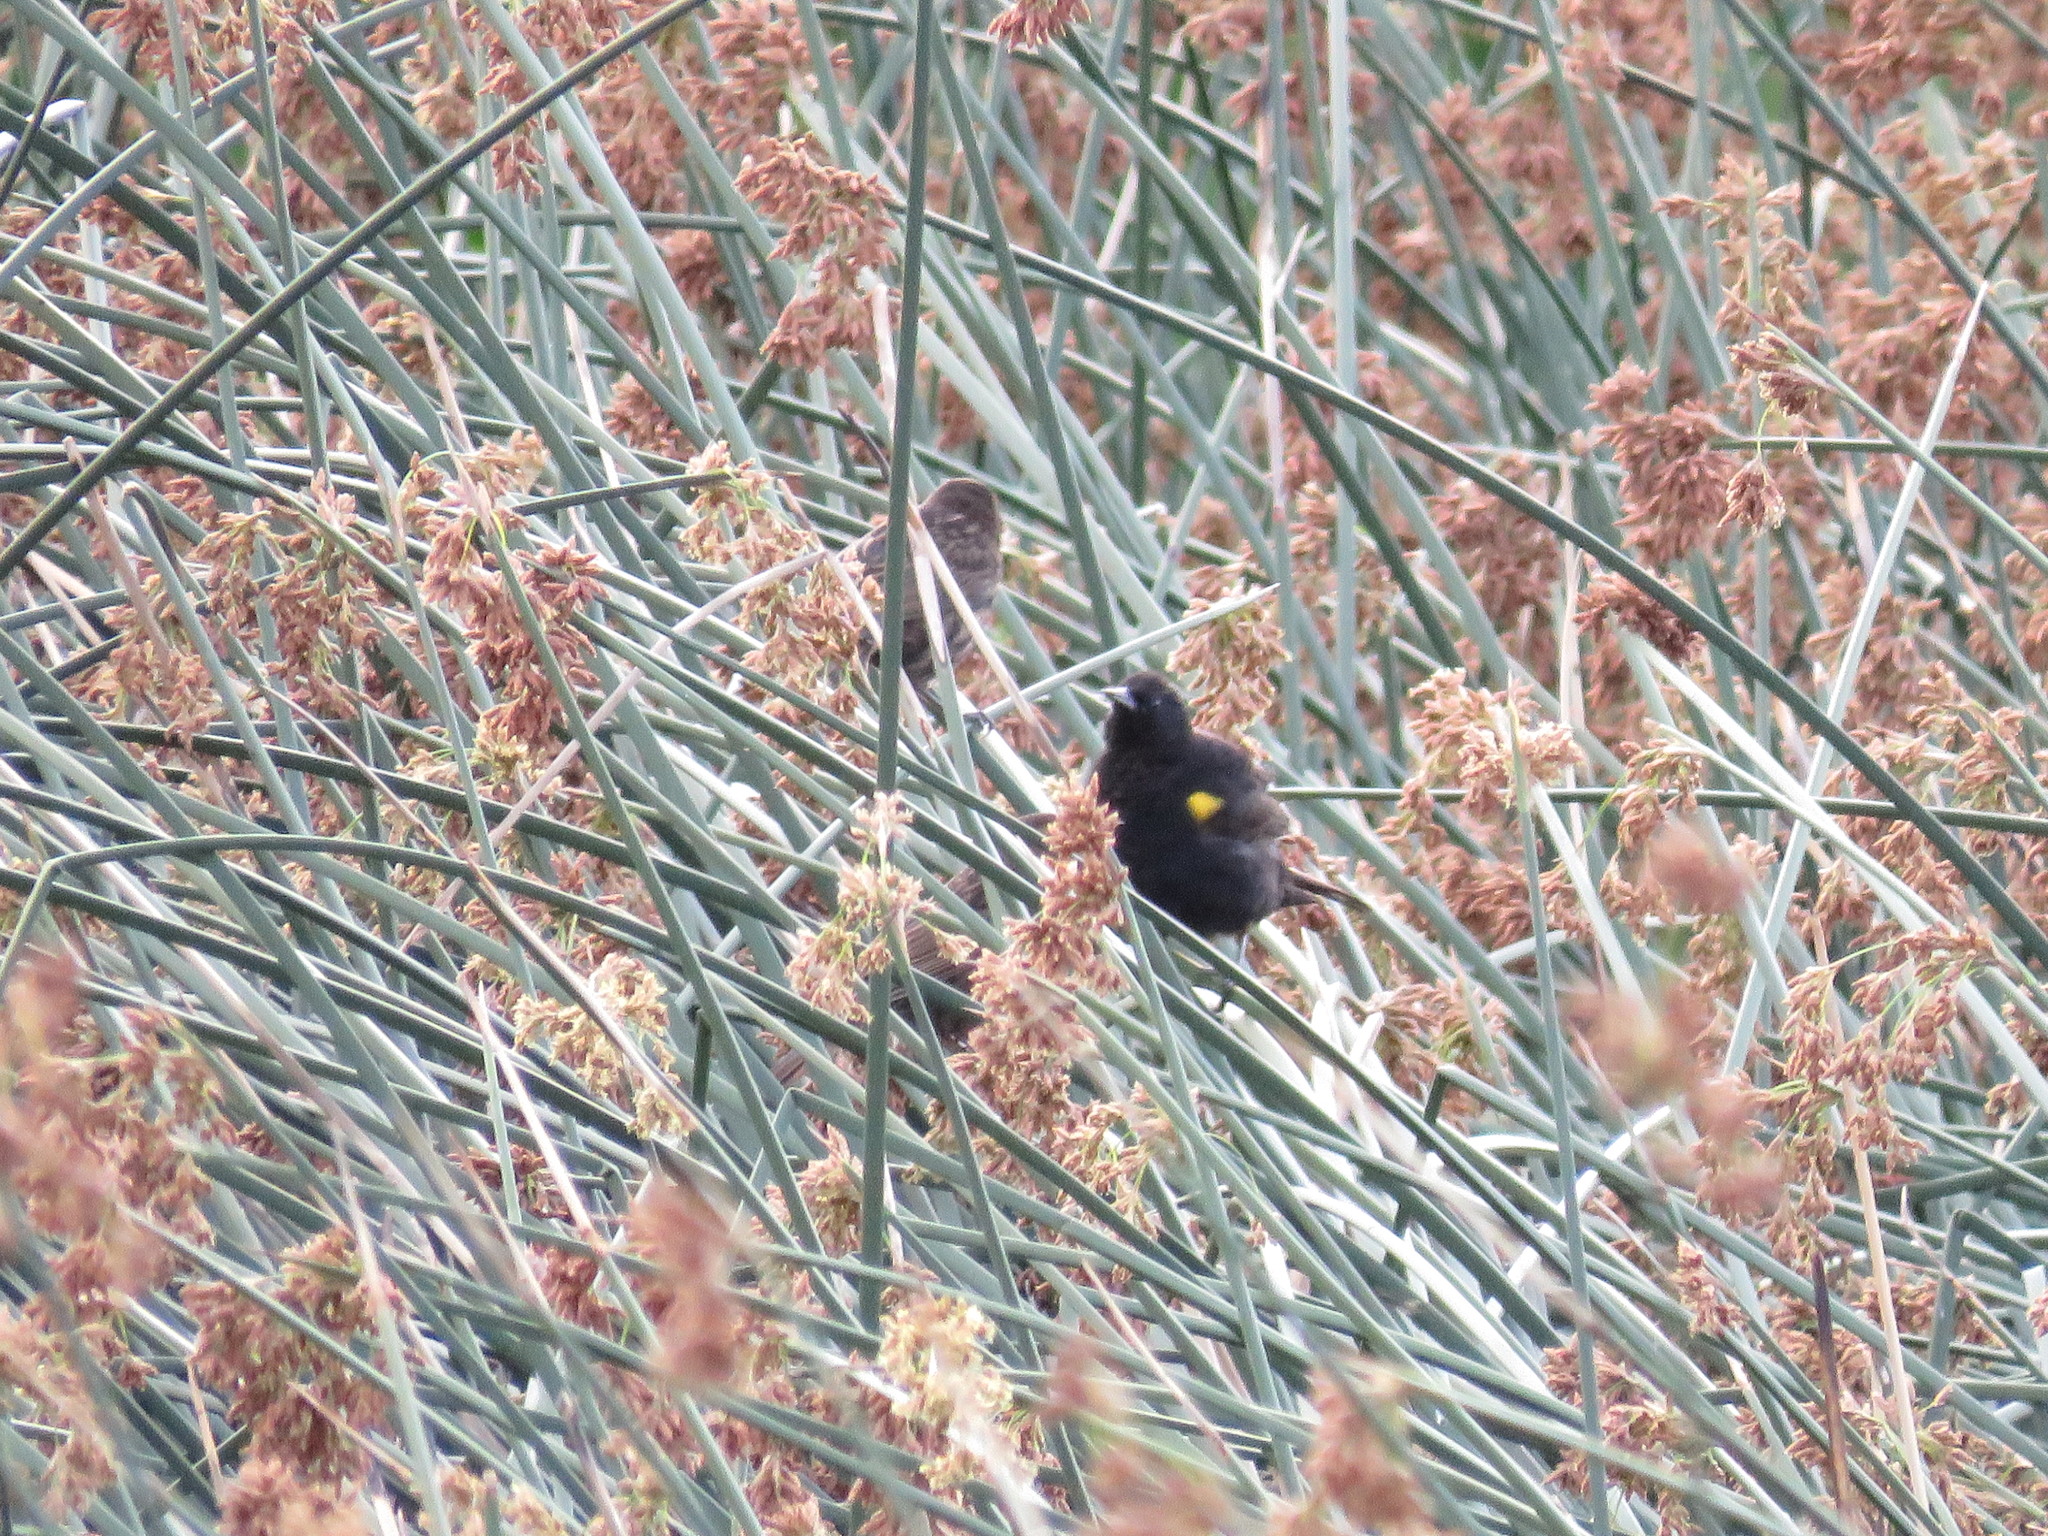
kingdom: Animalia
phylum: Chordata
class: Aves
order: Passeriformes
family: Icteridae
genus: Agelasticus
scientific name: Agelasticus thilius
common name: Yellow-winged blackbird
